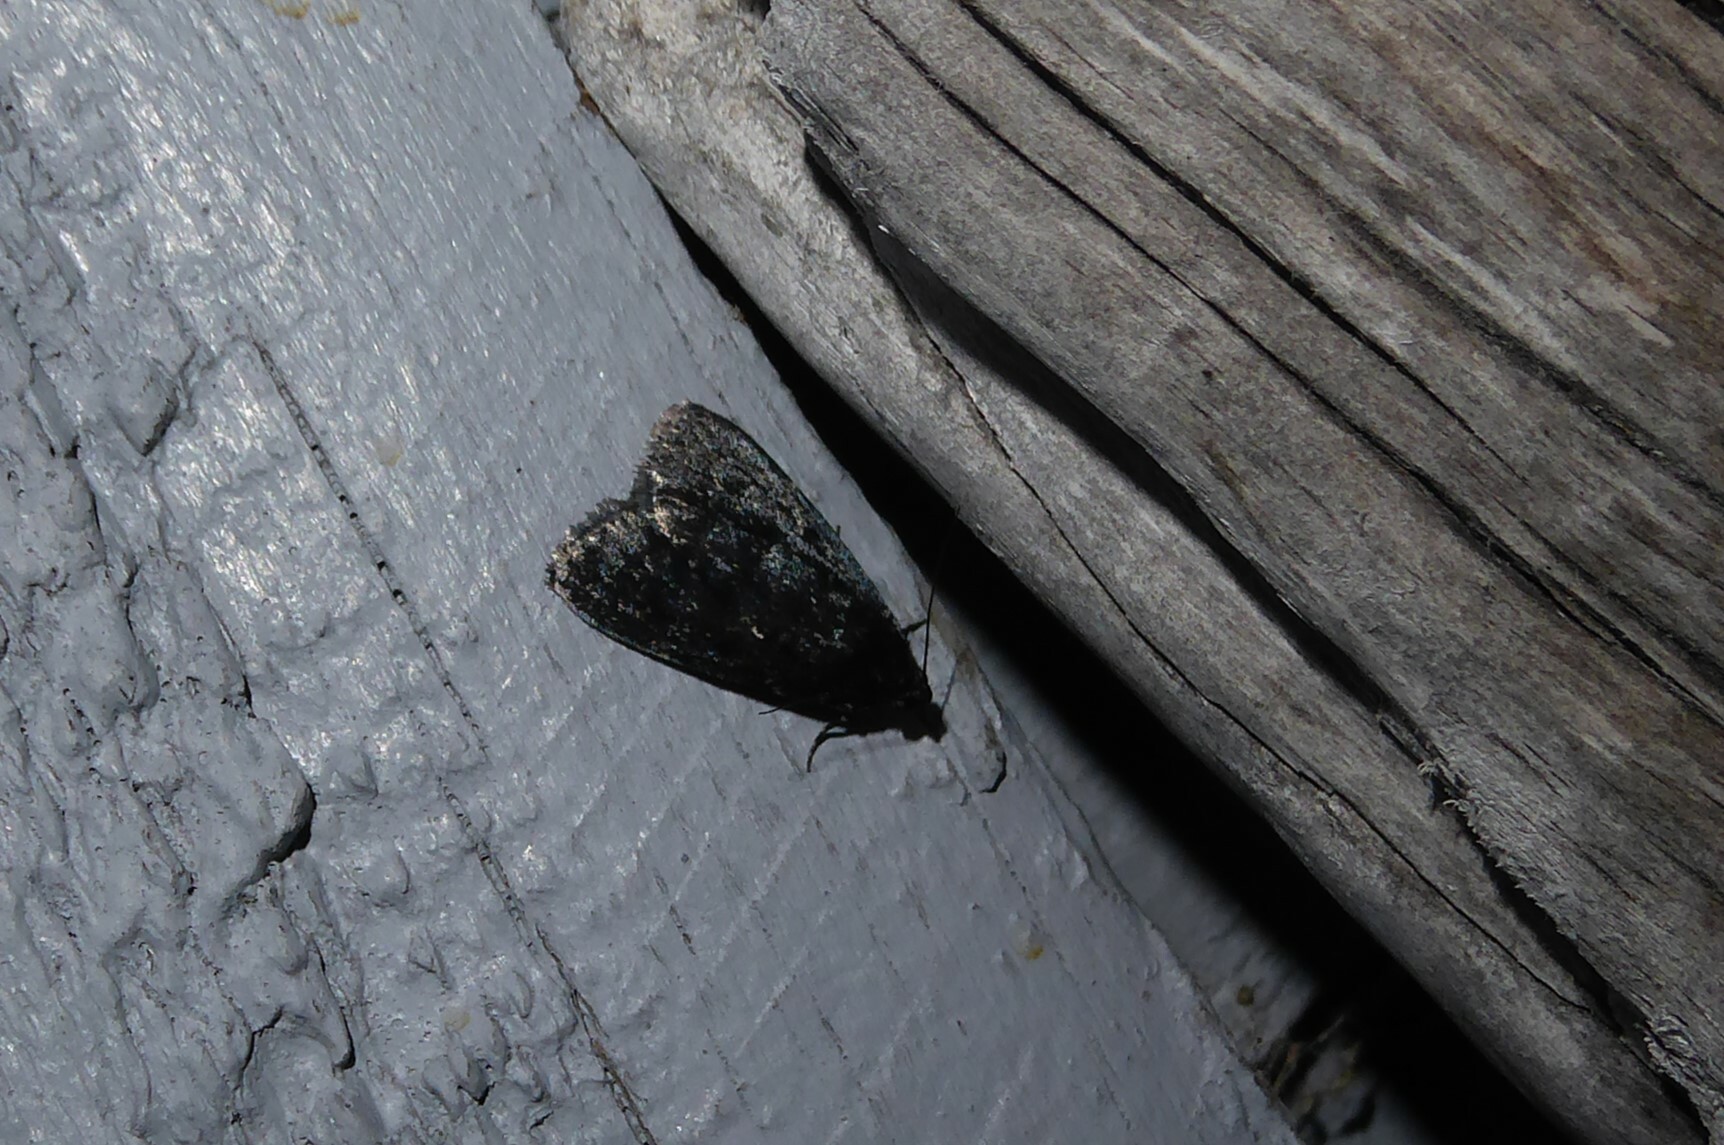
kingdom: Animalia
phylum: Arthropoda
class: Insecta
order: Lepidoptera
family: Pyralidae
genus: Stericta
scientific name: Stericta carbonalis
